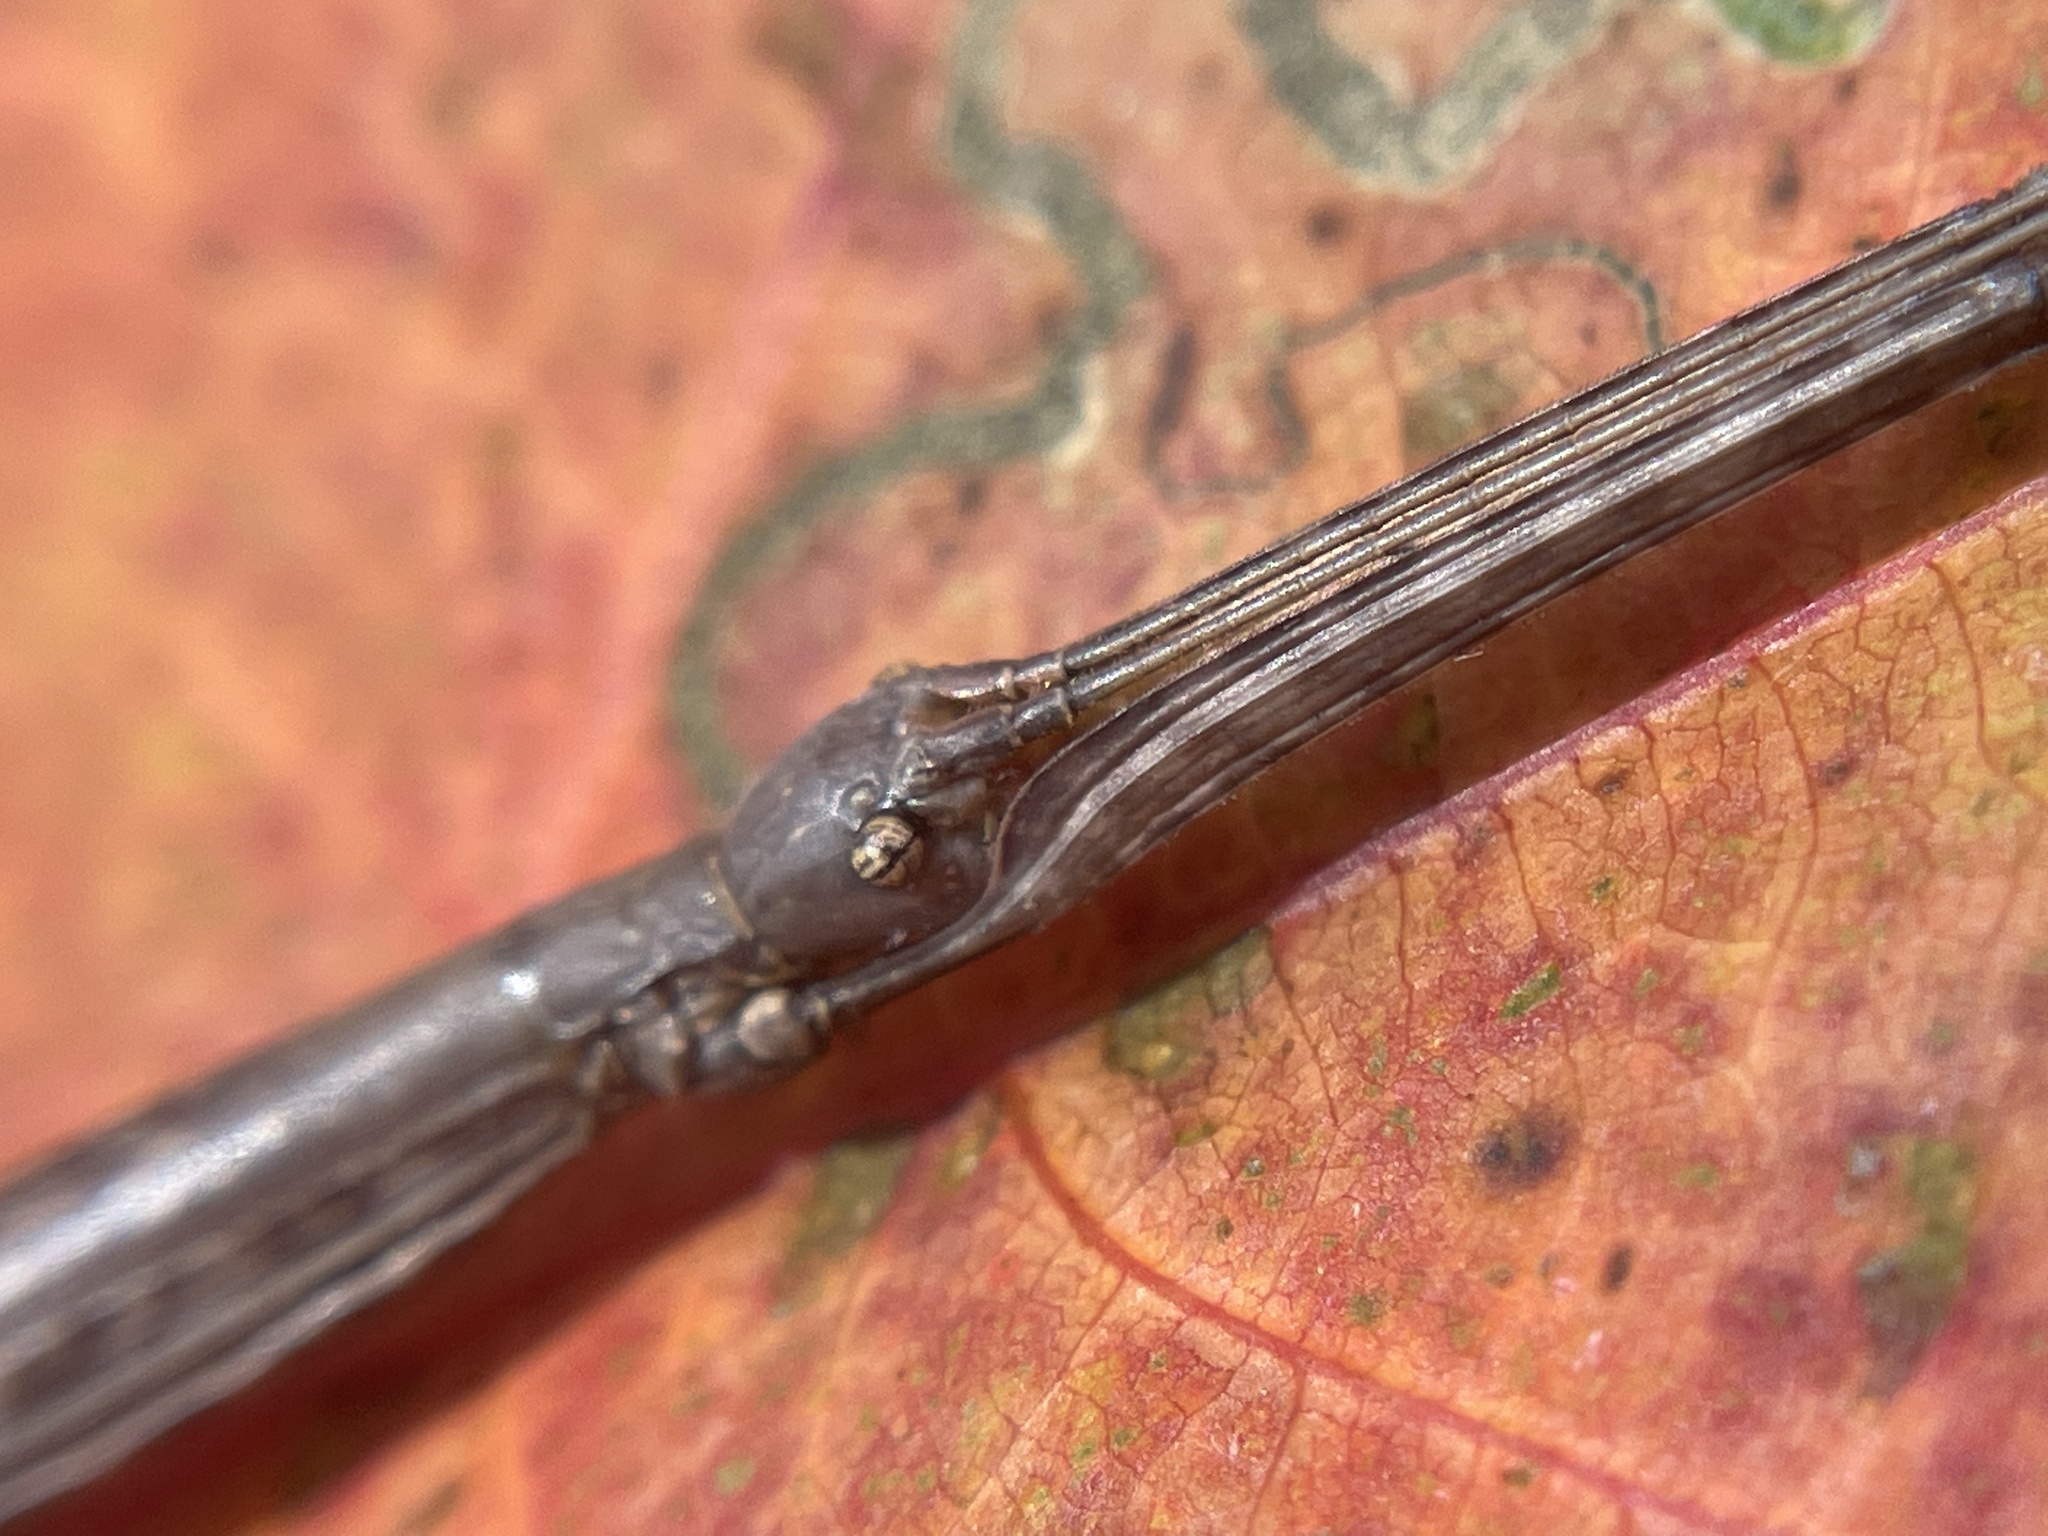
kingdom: Animalia
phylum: Arthropoda
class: Insecta
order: Phasmida
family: Diapheromeridae
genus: Diapheromera
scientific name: Diapheromera femorata
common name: Common american walkingstick
